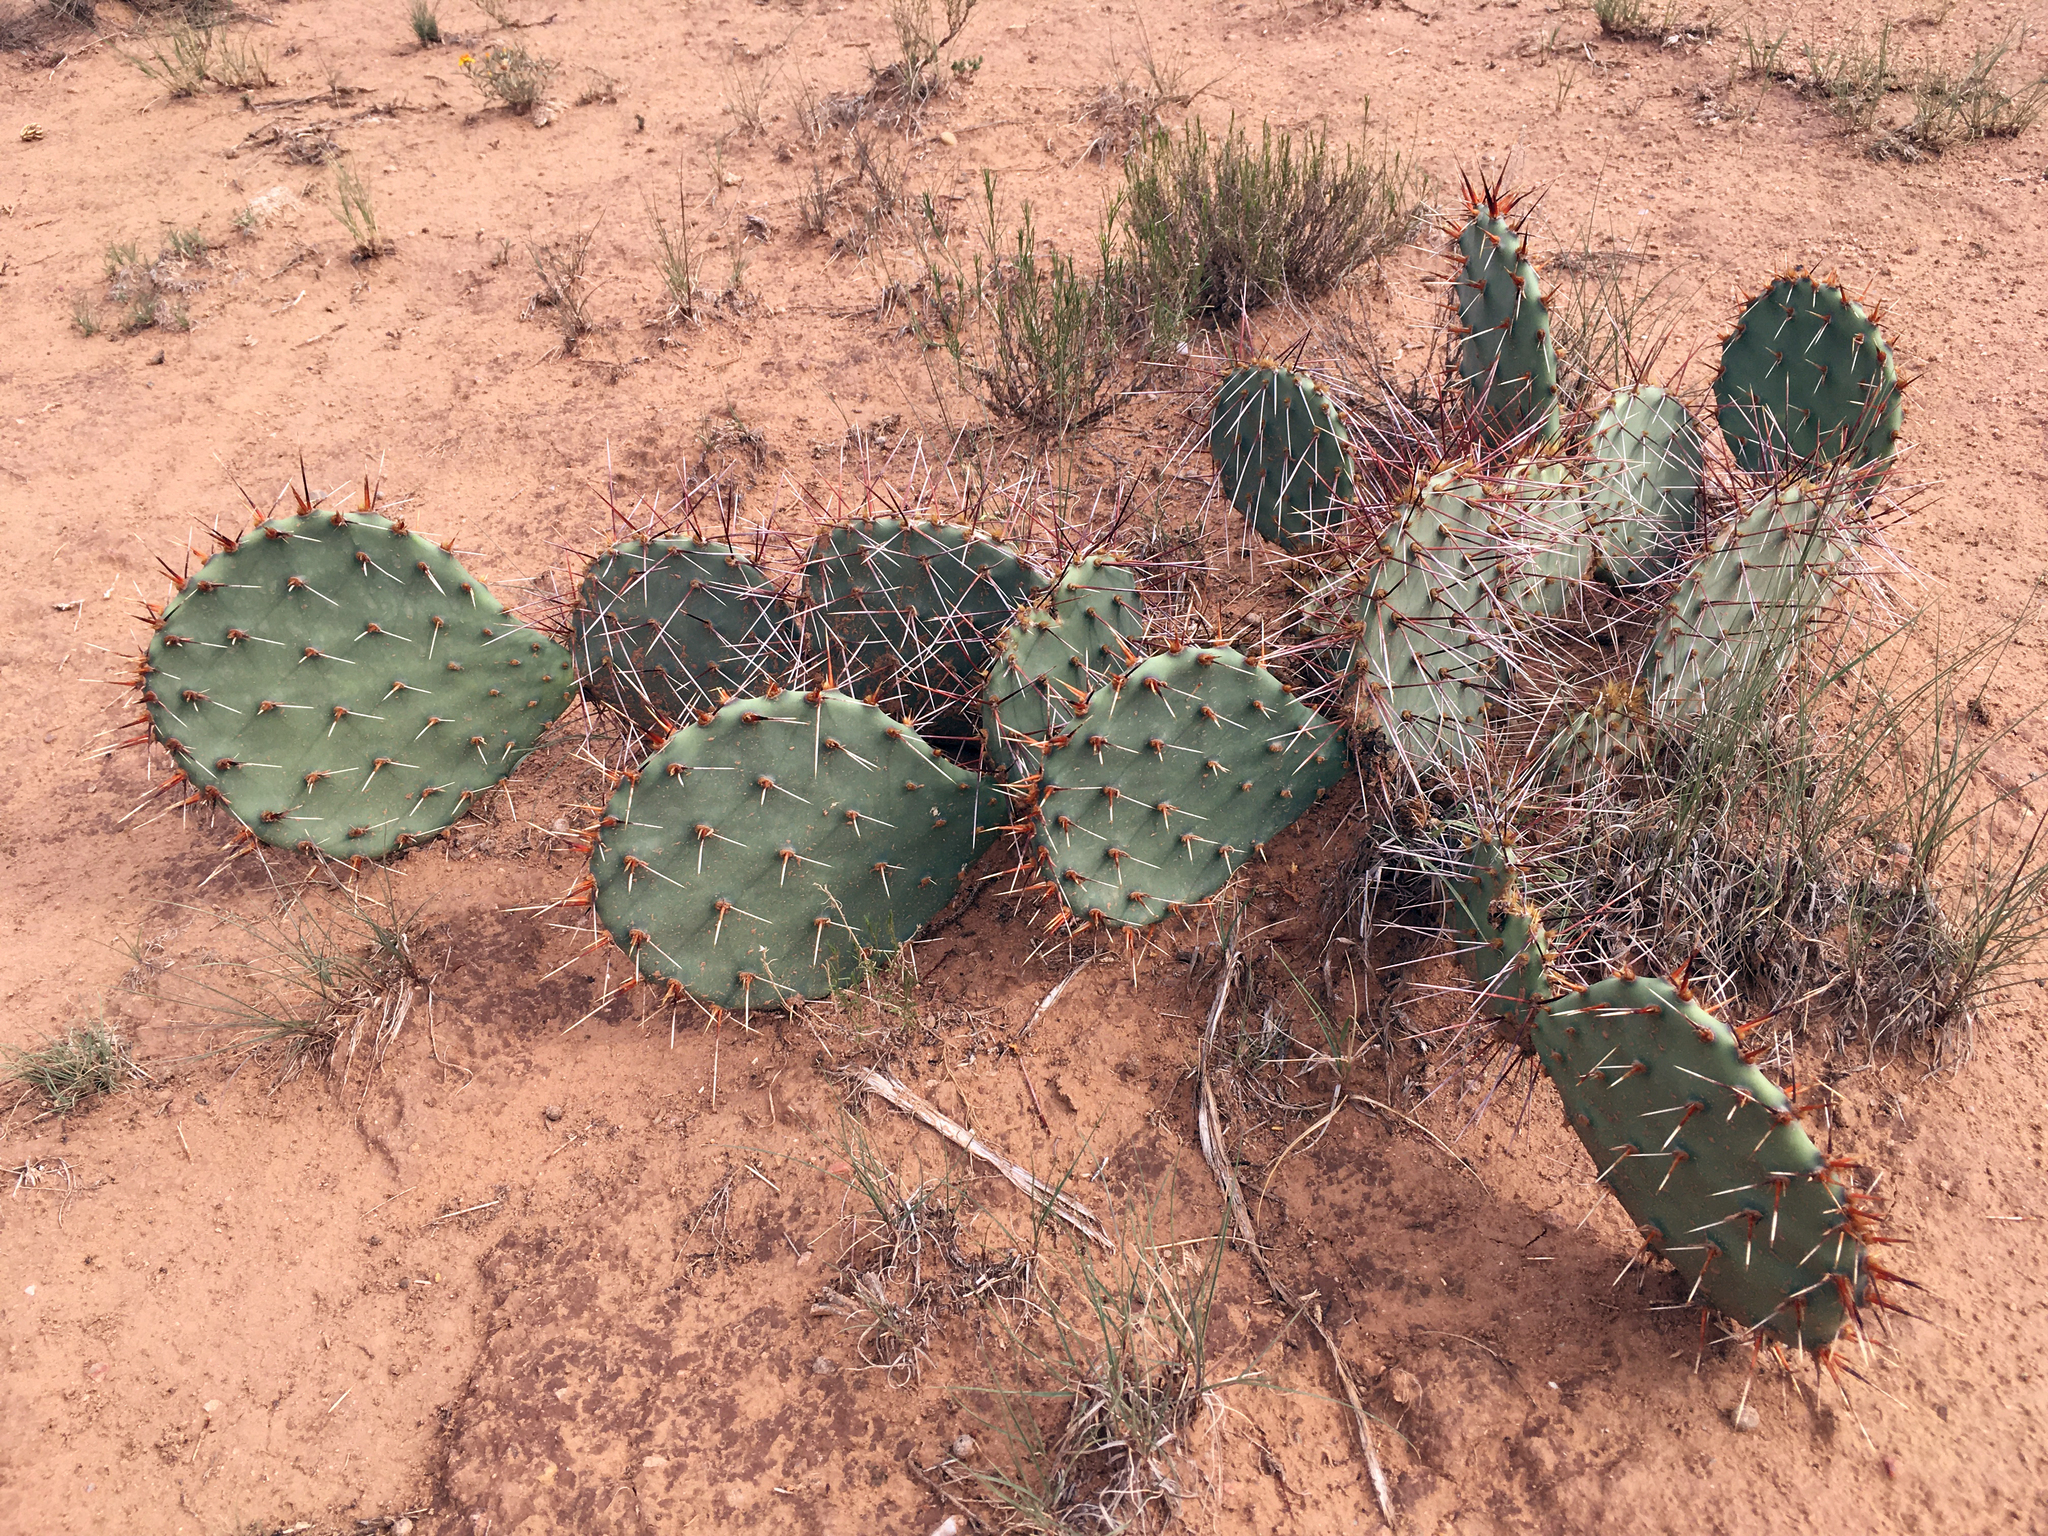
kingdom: Plantae
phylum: Tracheophyta
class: Magnoliopsida
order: Caryophyllales
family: Cactaceae
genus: Opuntia
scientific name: Opuntia phaeacantha
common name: New mexico prickly-pear
